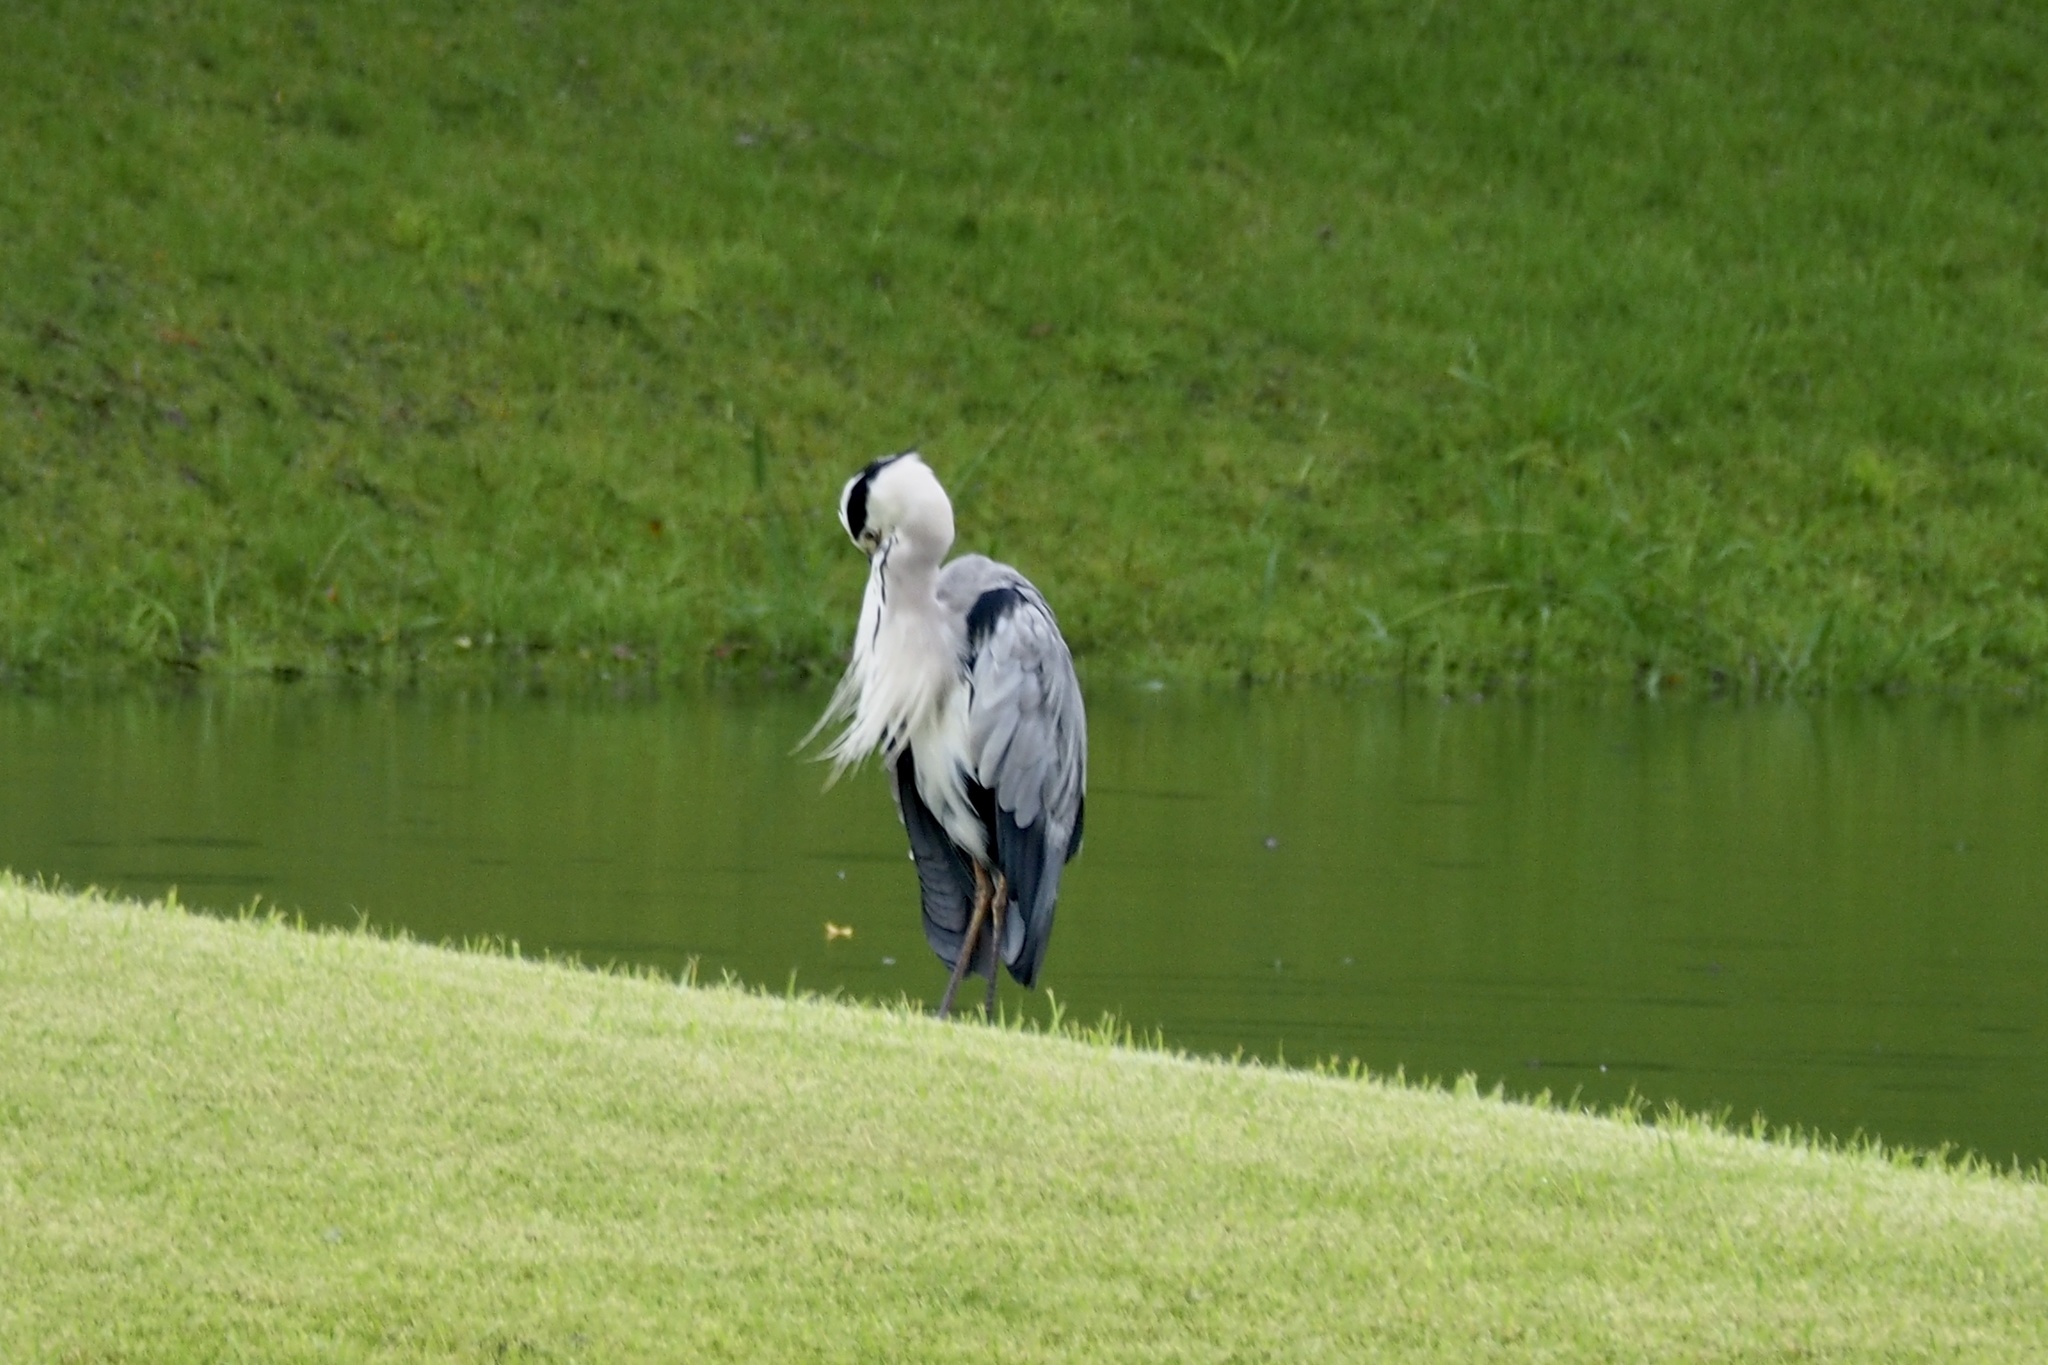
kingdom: Animalia
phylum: Chordata
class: Aves
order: Pelecaniformes
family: Ardeidae
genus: Ardea
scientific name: Ardea cinerea
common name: Grey heron
